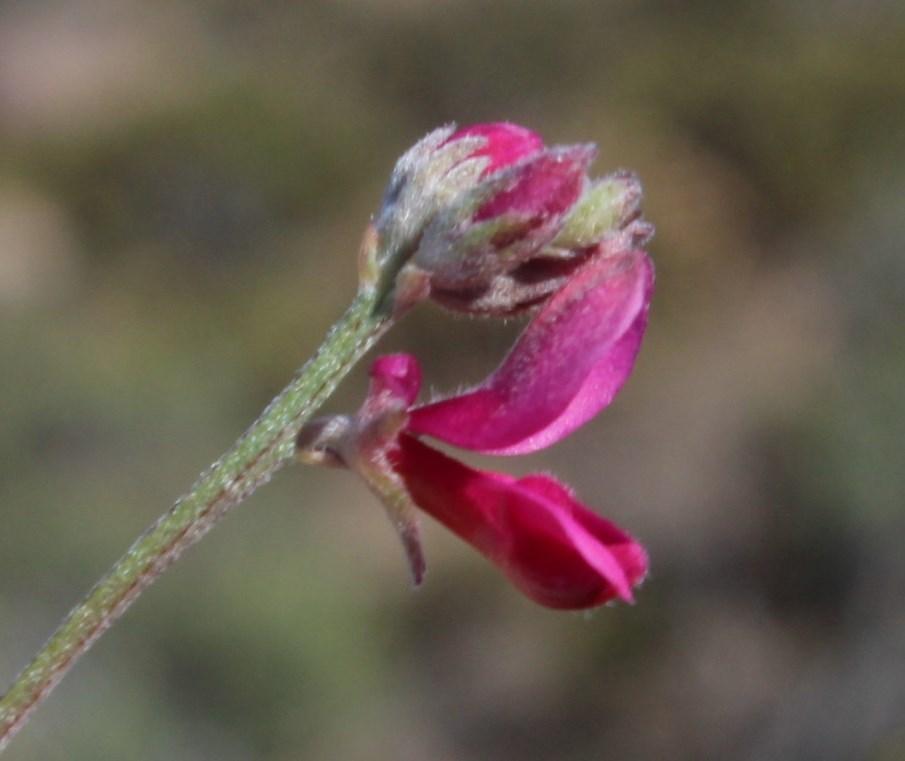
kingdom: Plantae
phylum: Tracheophyta
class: Magnoliopsida
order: Fabales
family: Fabaceae
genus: Indigofera
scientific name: Indigofera meyeriana
